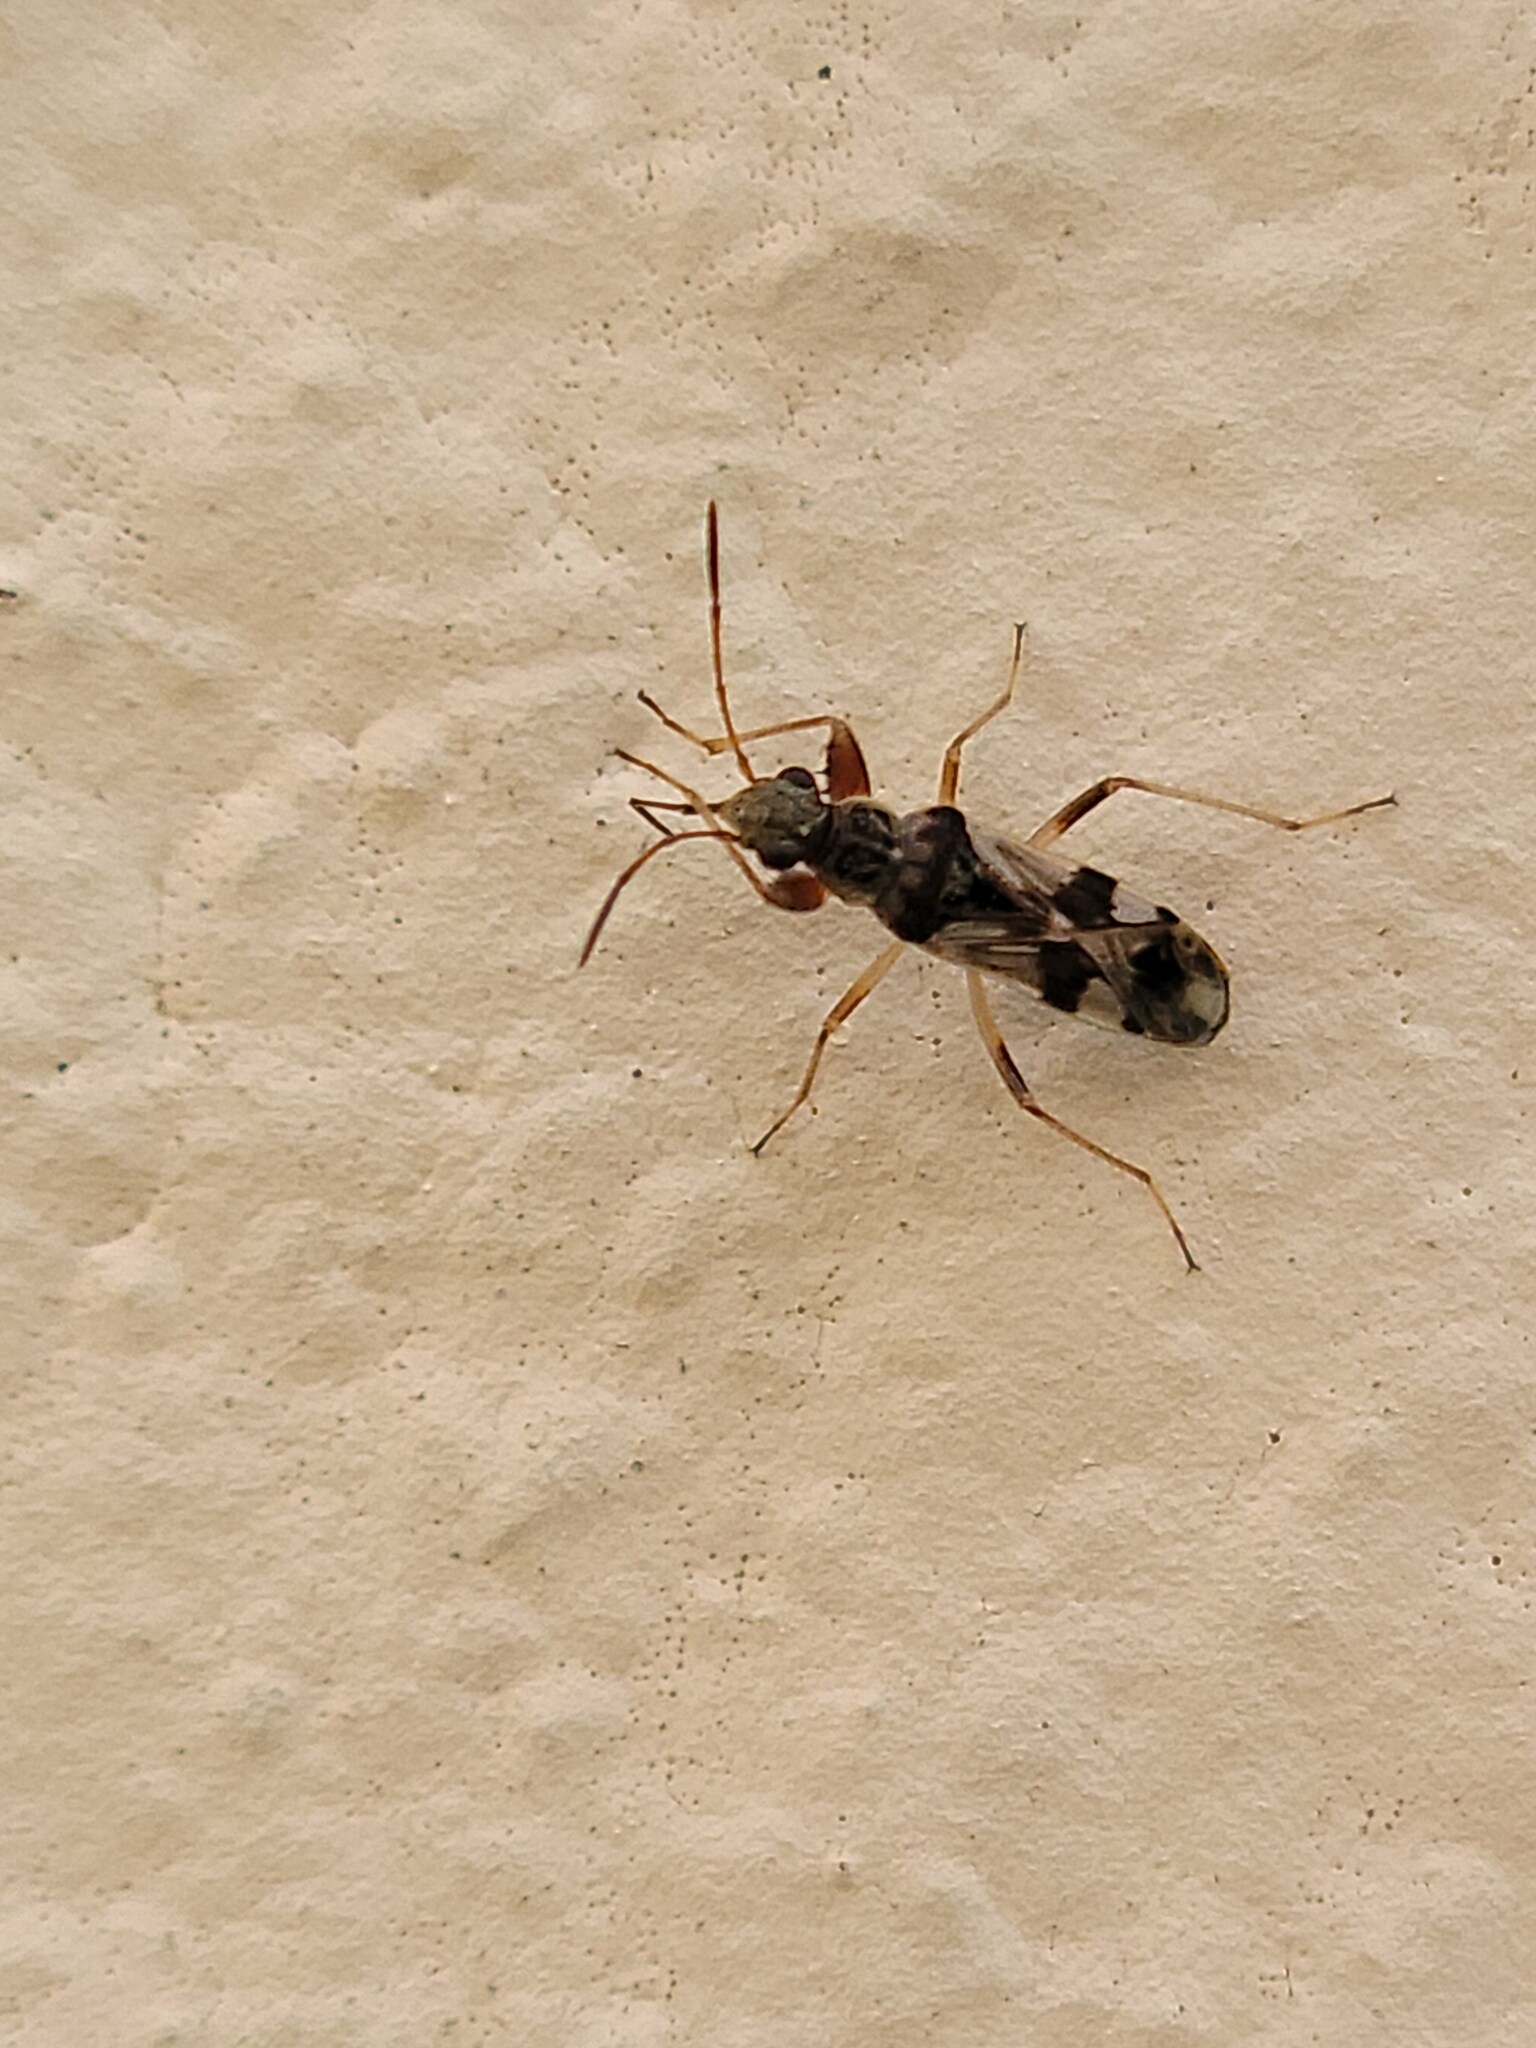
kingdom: Animalia
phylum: Arthropoda
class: Insecta
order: Hemiptera
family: Rhyparochromidae
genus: Neopamera
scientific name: Neopamera bilobata
